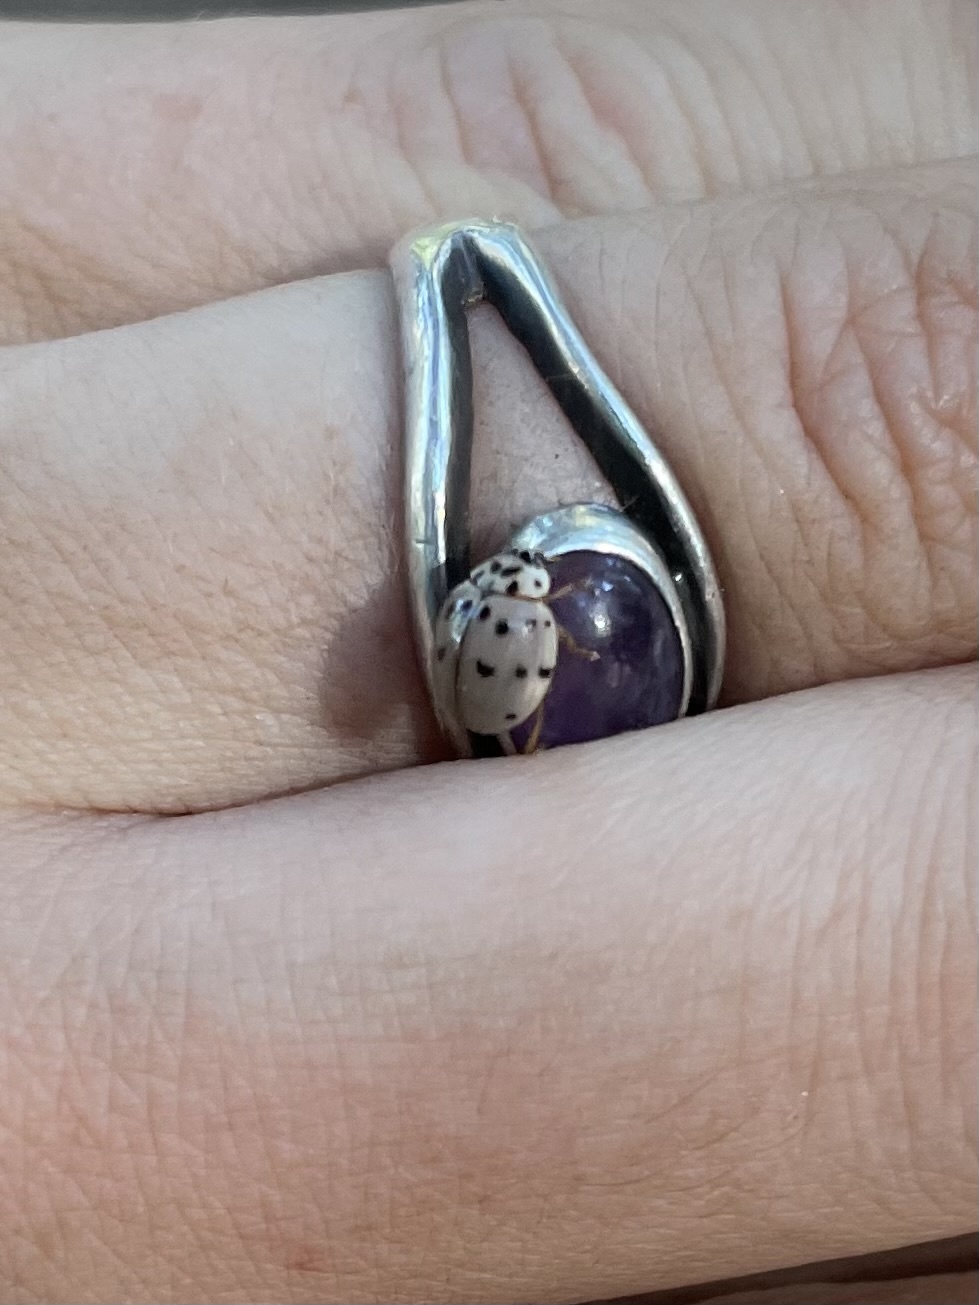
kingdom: Animalia
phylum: Arthropoda
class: Insecta
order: Coleoptera
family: Coccinellidae
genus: Olla
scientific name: Olla v-nigrum
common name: Ashy gray lady beetle
